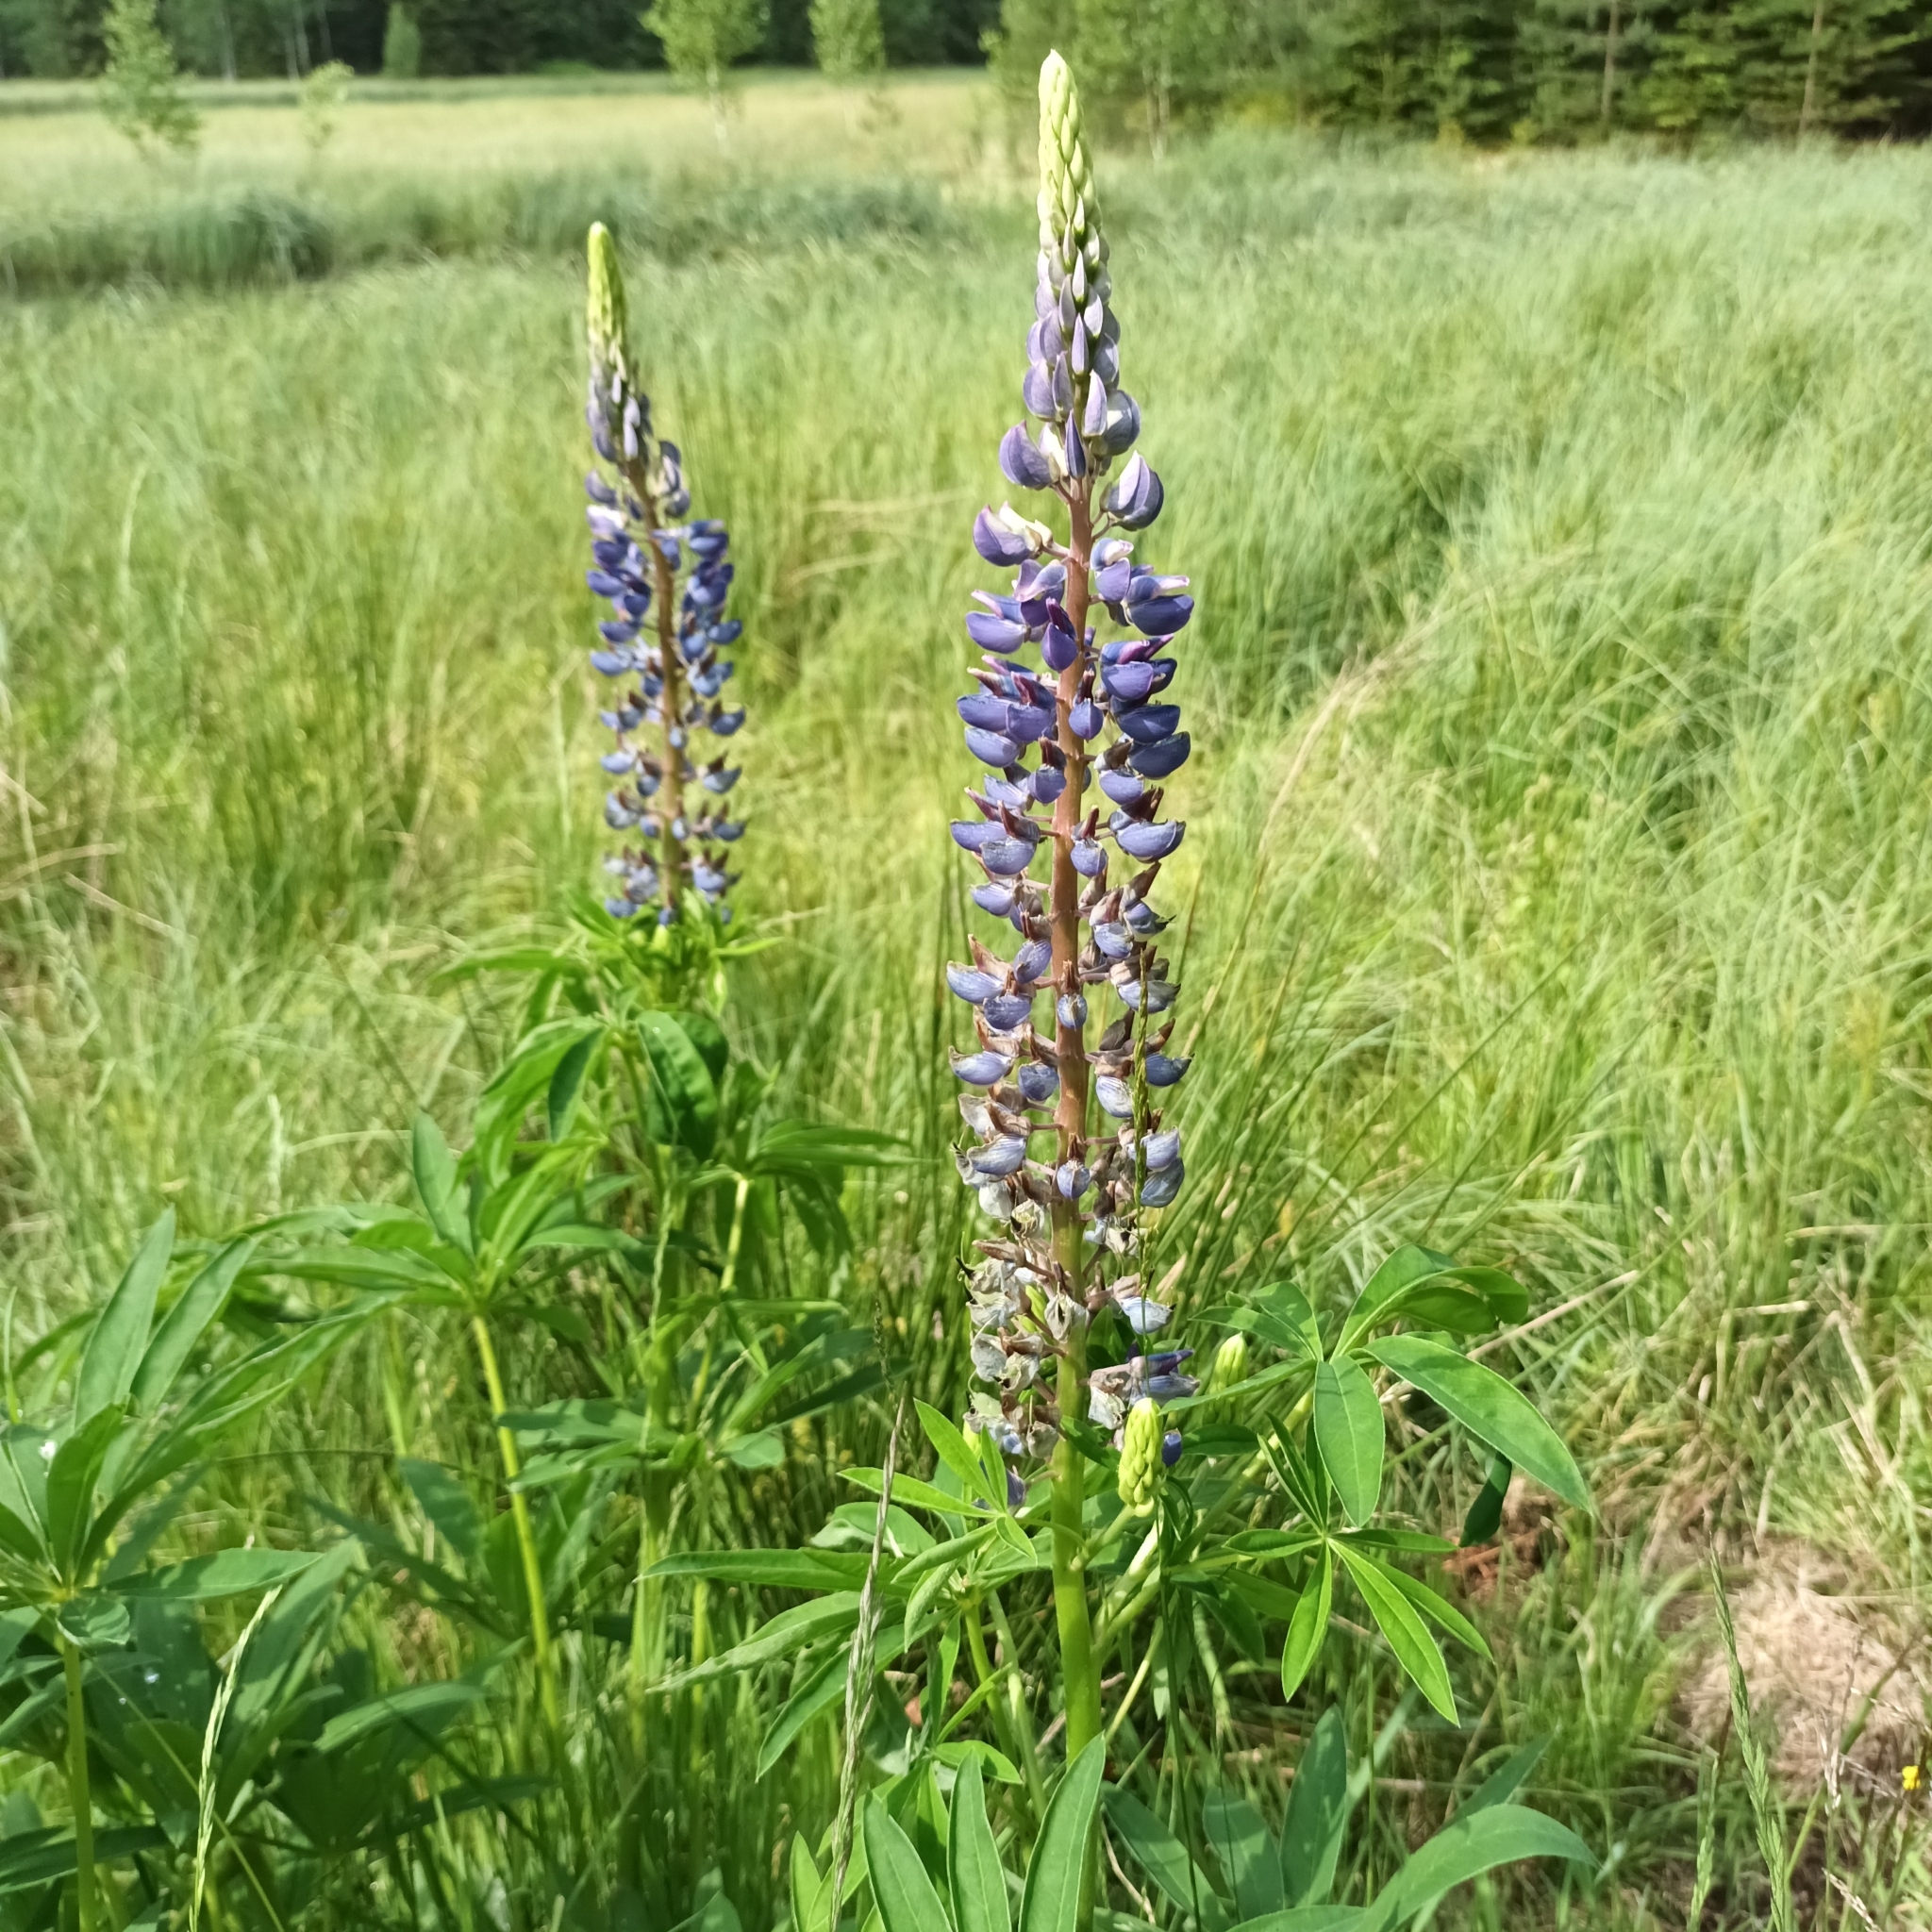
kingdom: Plantae
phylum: Tracheophyta
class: Magnoliopsida
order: Fabales
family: Fabaceae
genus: Lupinus
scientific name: Lupinus polyphyllus
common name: Garden lupin
